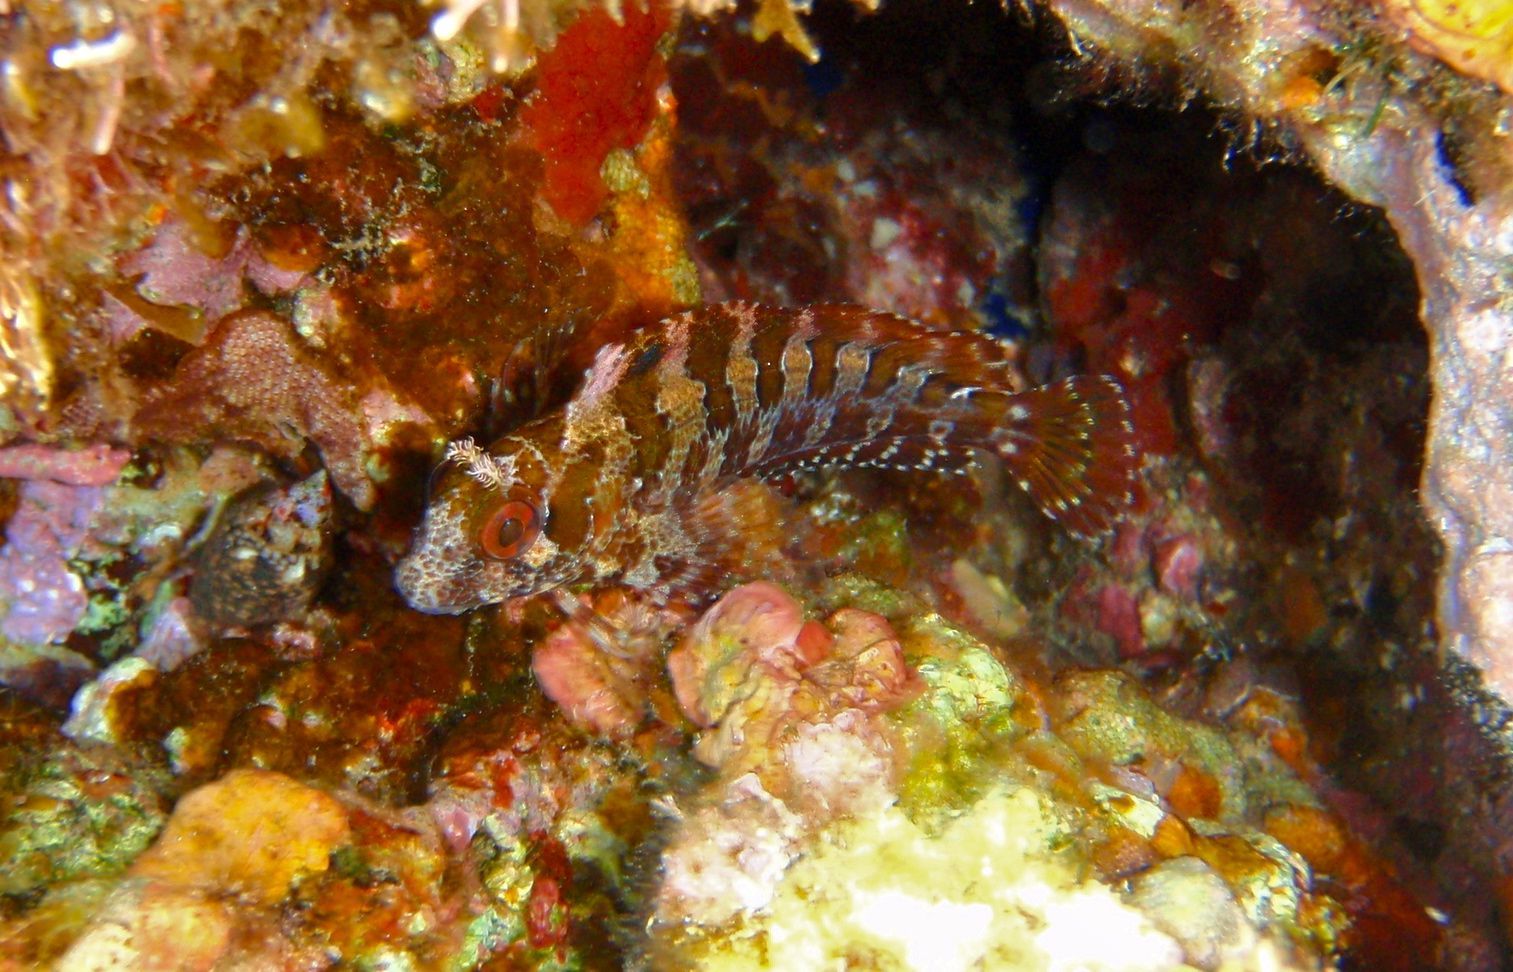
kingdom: Animalia
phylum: Chordata
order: Perciformes
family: Blenniidae
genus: Parablennius
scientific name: Parablennius gattorugine
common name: Tompot blenny
